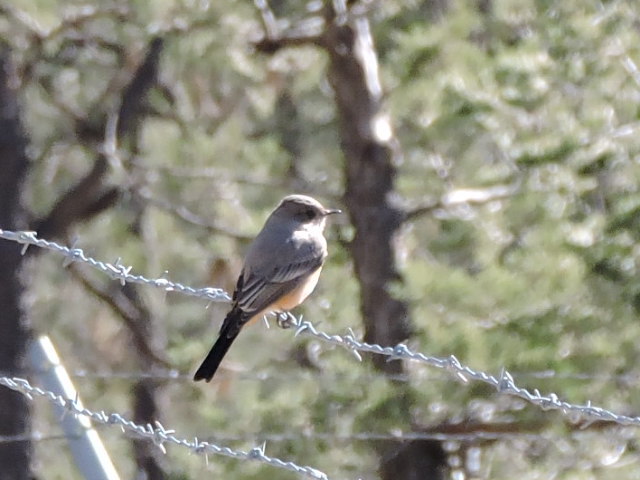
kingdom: Animalia
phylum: Chordata
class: Aves
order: Passeriformes
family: Tyrannidae
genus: Sayornis
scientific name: Sayornis saya
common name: Say's phoebe
